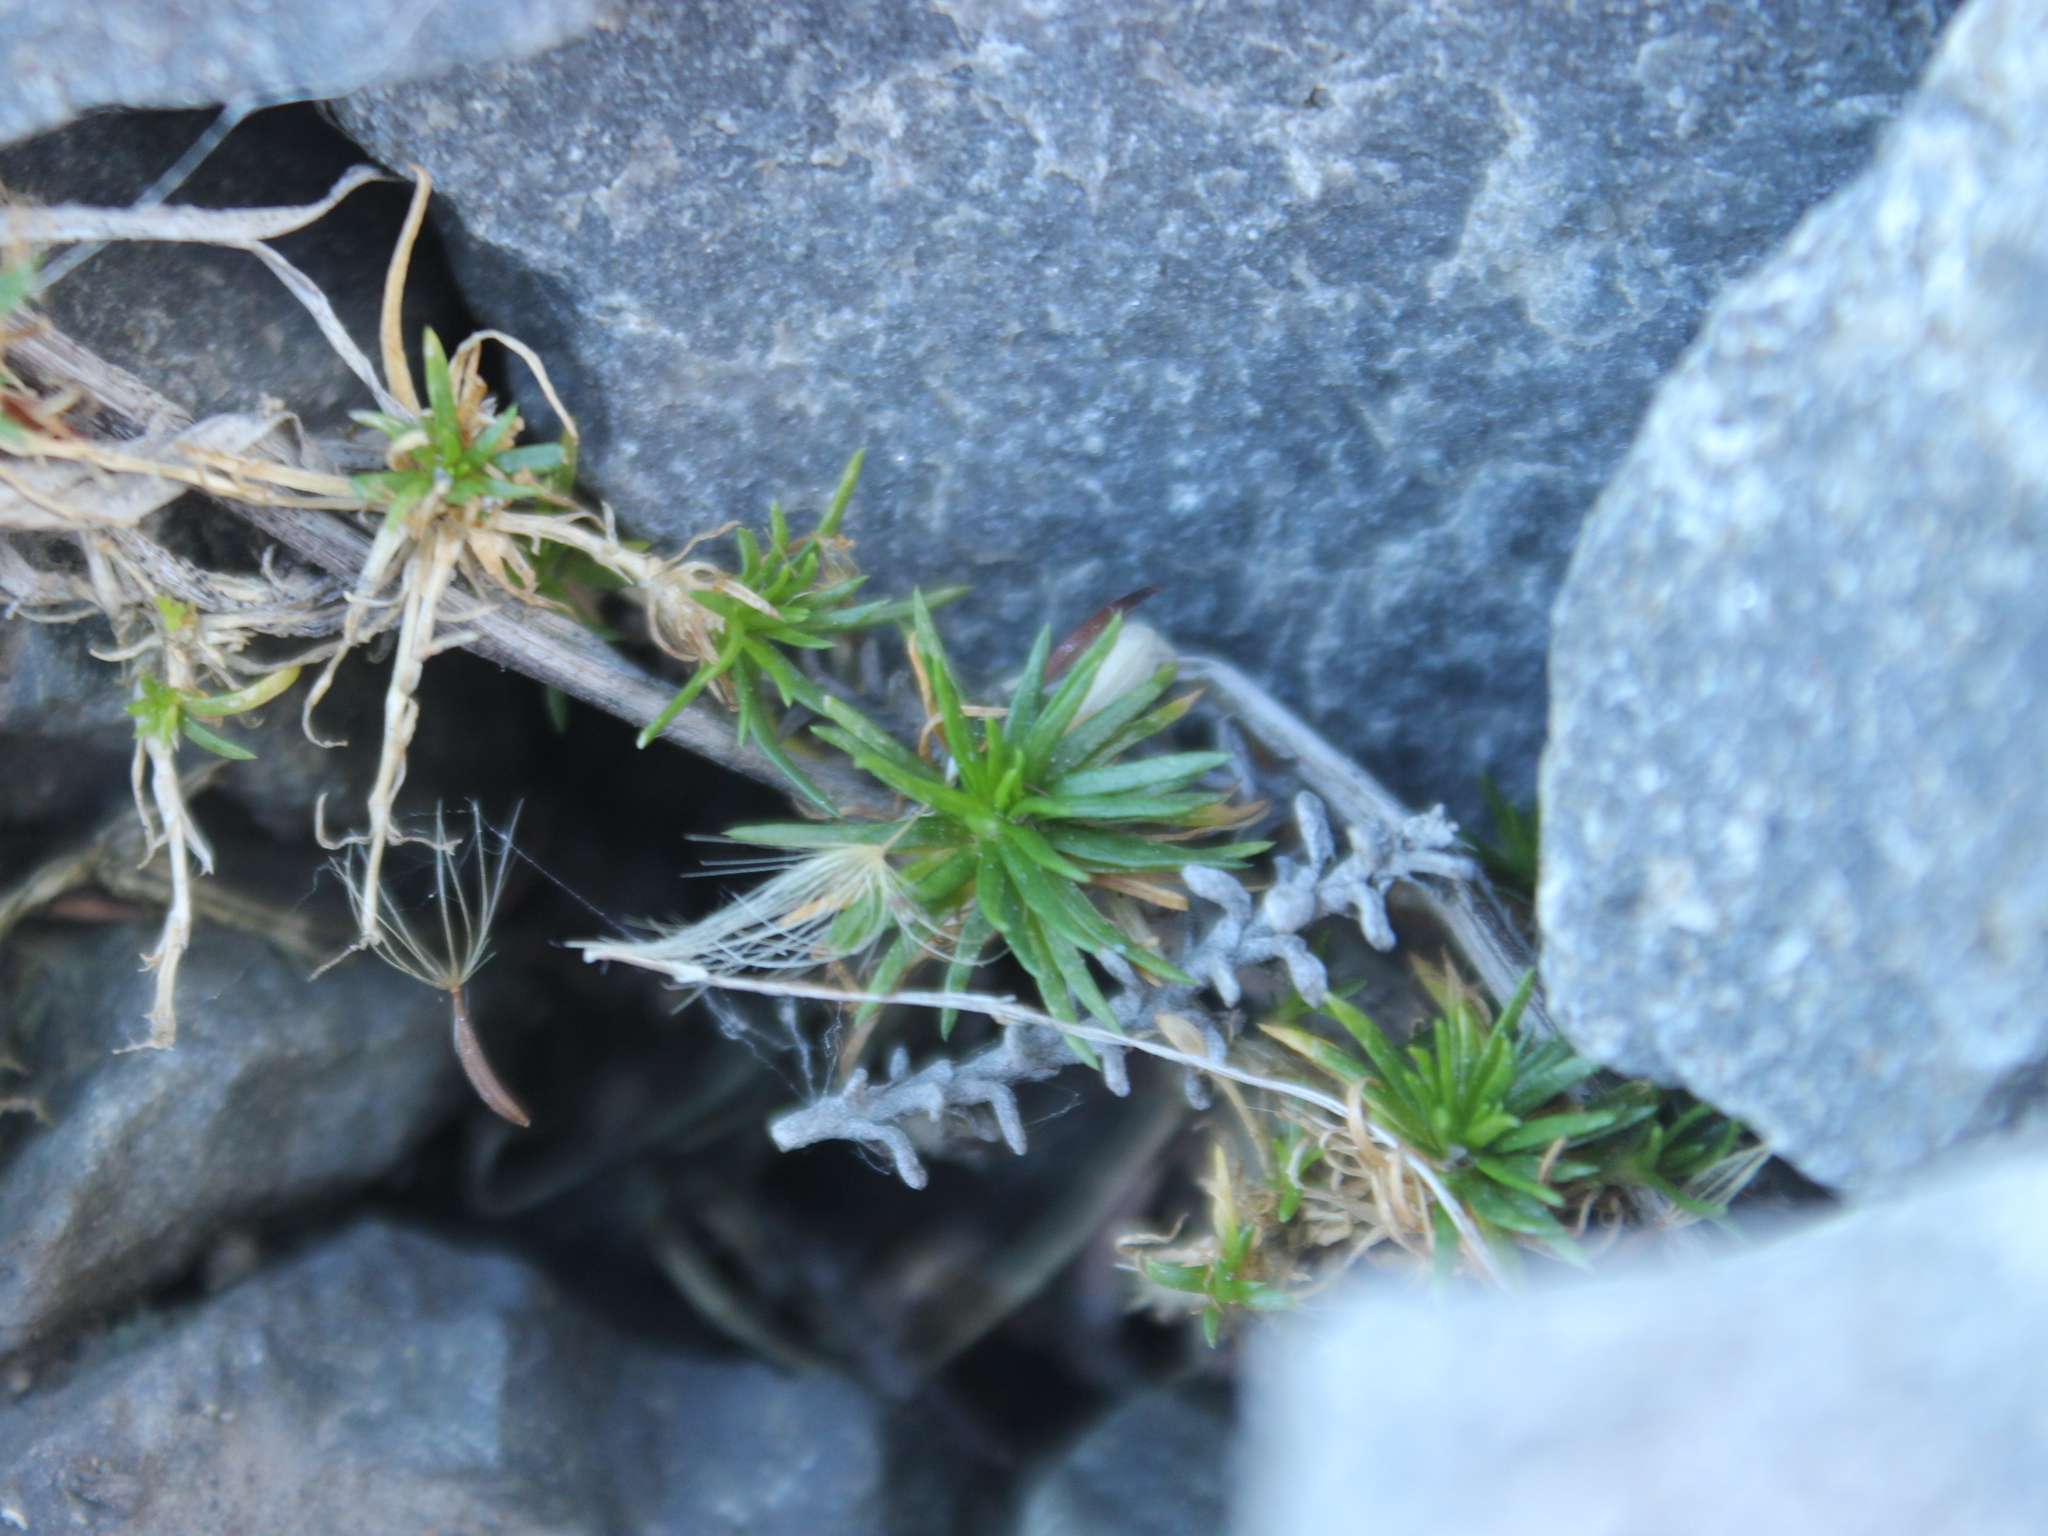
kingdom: Plantae
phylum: Tracheophyta
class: Magnoliopsida
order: Caryophyllales
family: Caryophyllaceae
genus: Scleranthus
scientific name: Scleranthus biflorus
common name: Two-flower knawel
